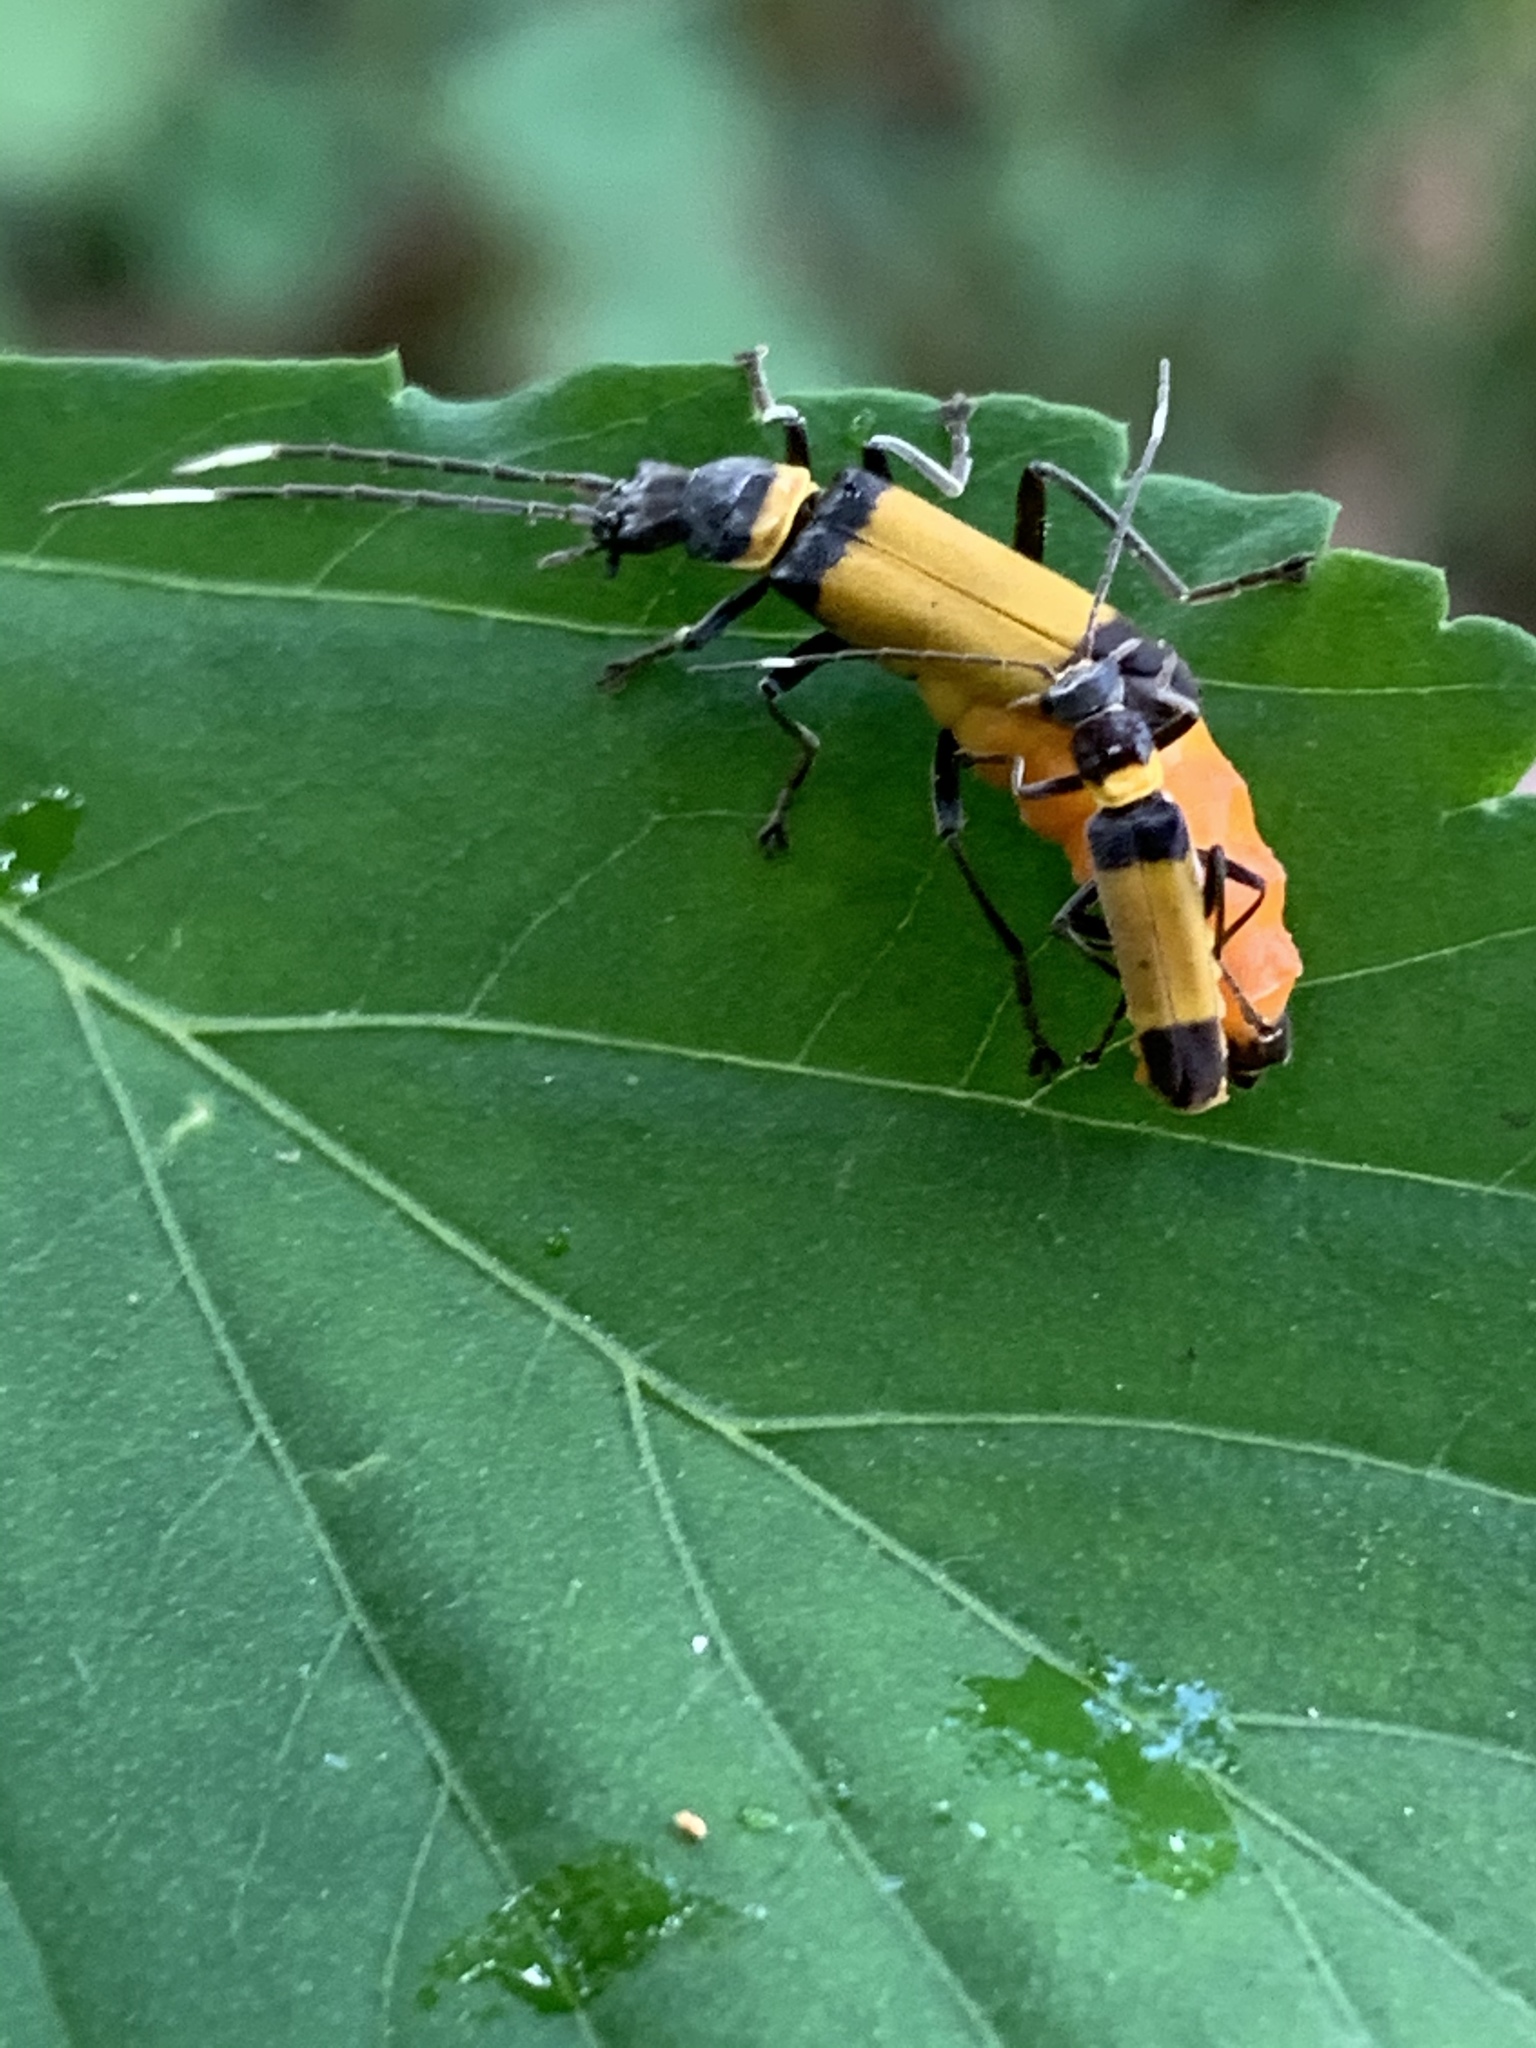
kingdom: Animalia
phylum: Arthropoda
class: Insecta
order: Coleoptera
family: Cantharidae
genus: Chauliognathus
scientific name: Chauliognathus
